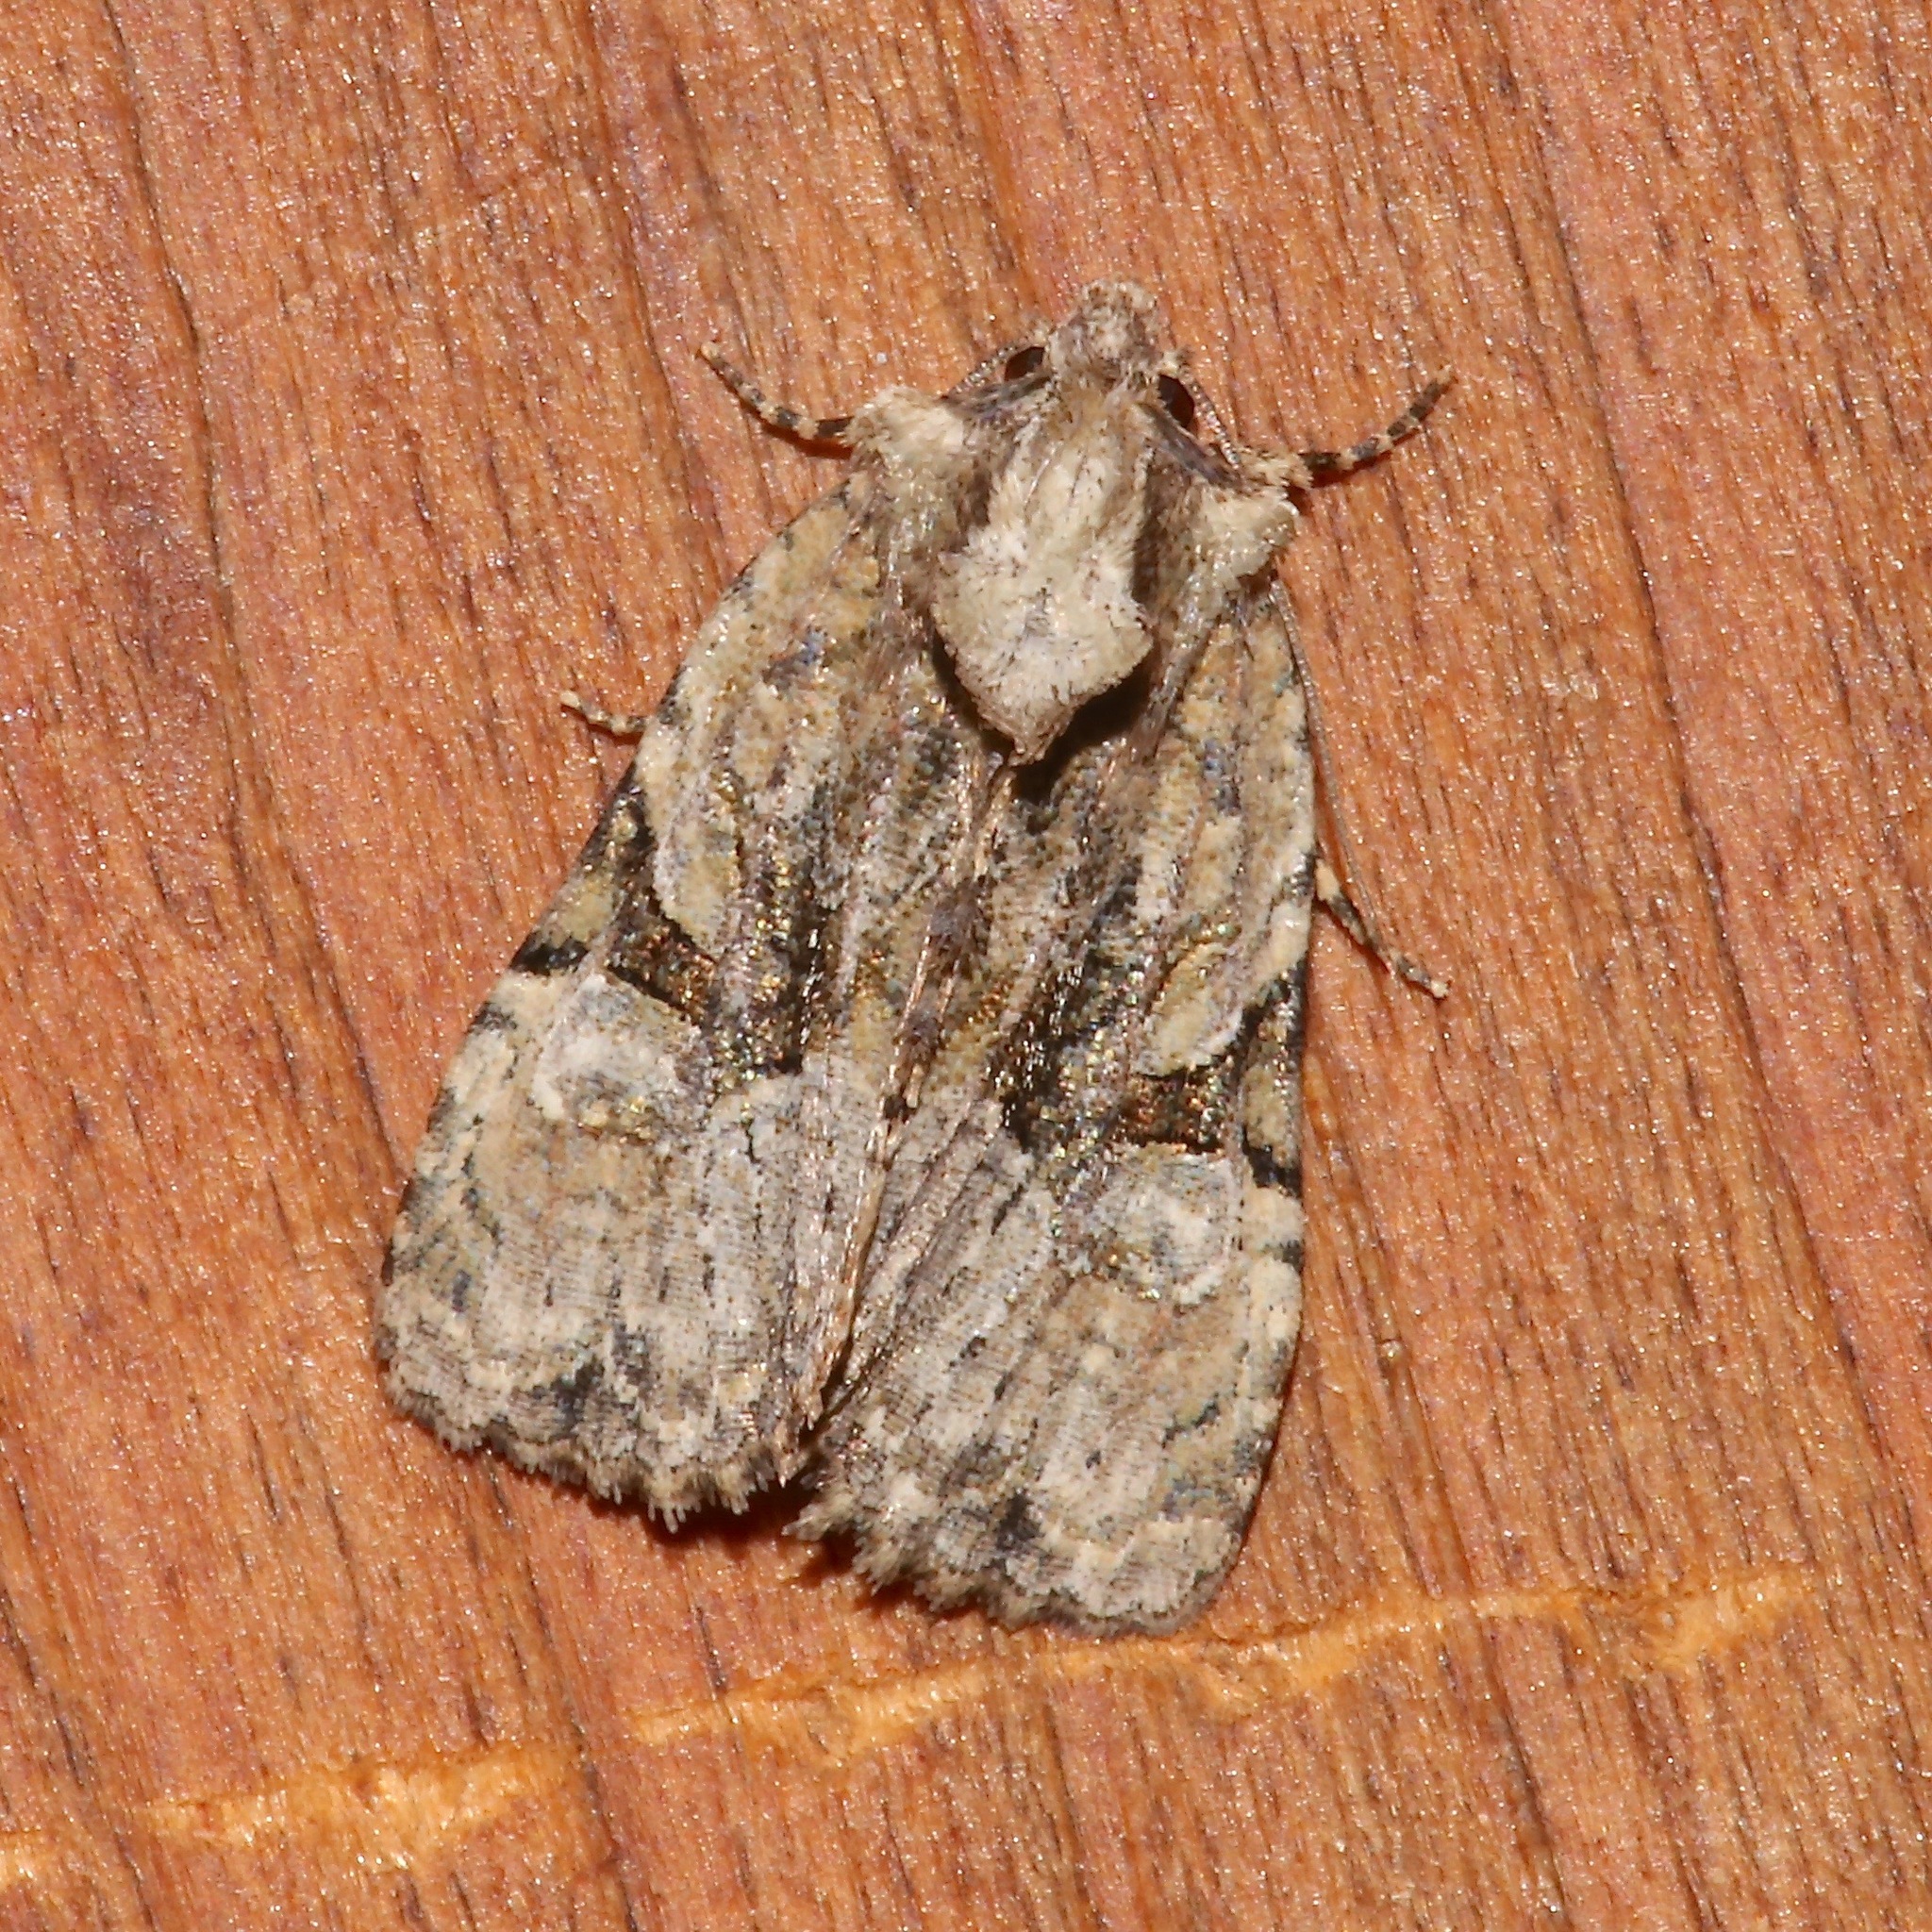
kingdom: Animalia
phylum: Arthropoda
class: Insecta
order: Lepidoptera
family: Noctuidae
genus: Oligia
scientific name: Oligia modica
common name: Black-banded brocade
